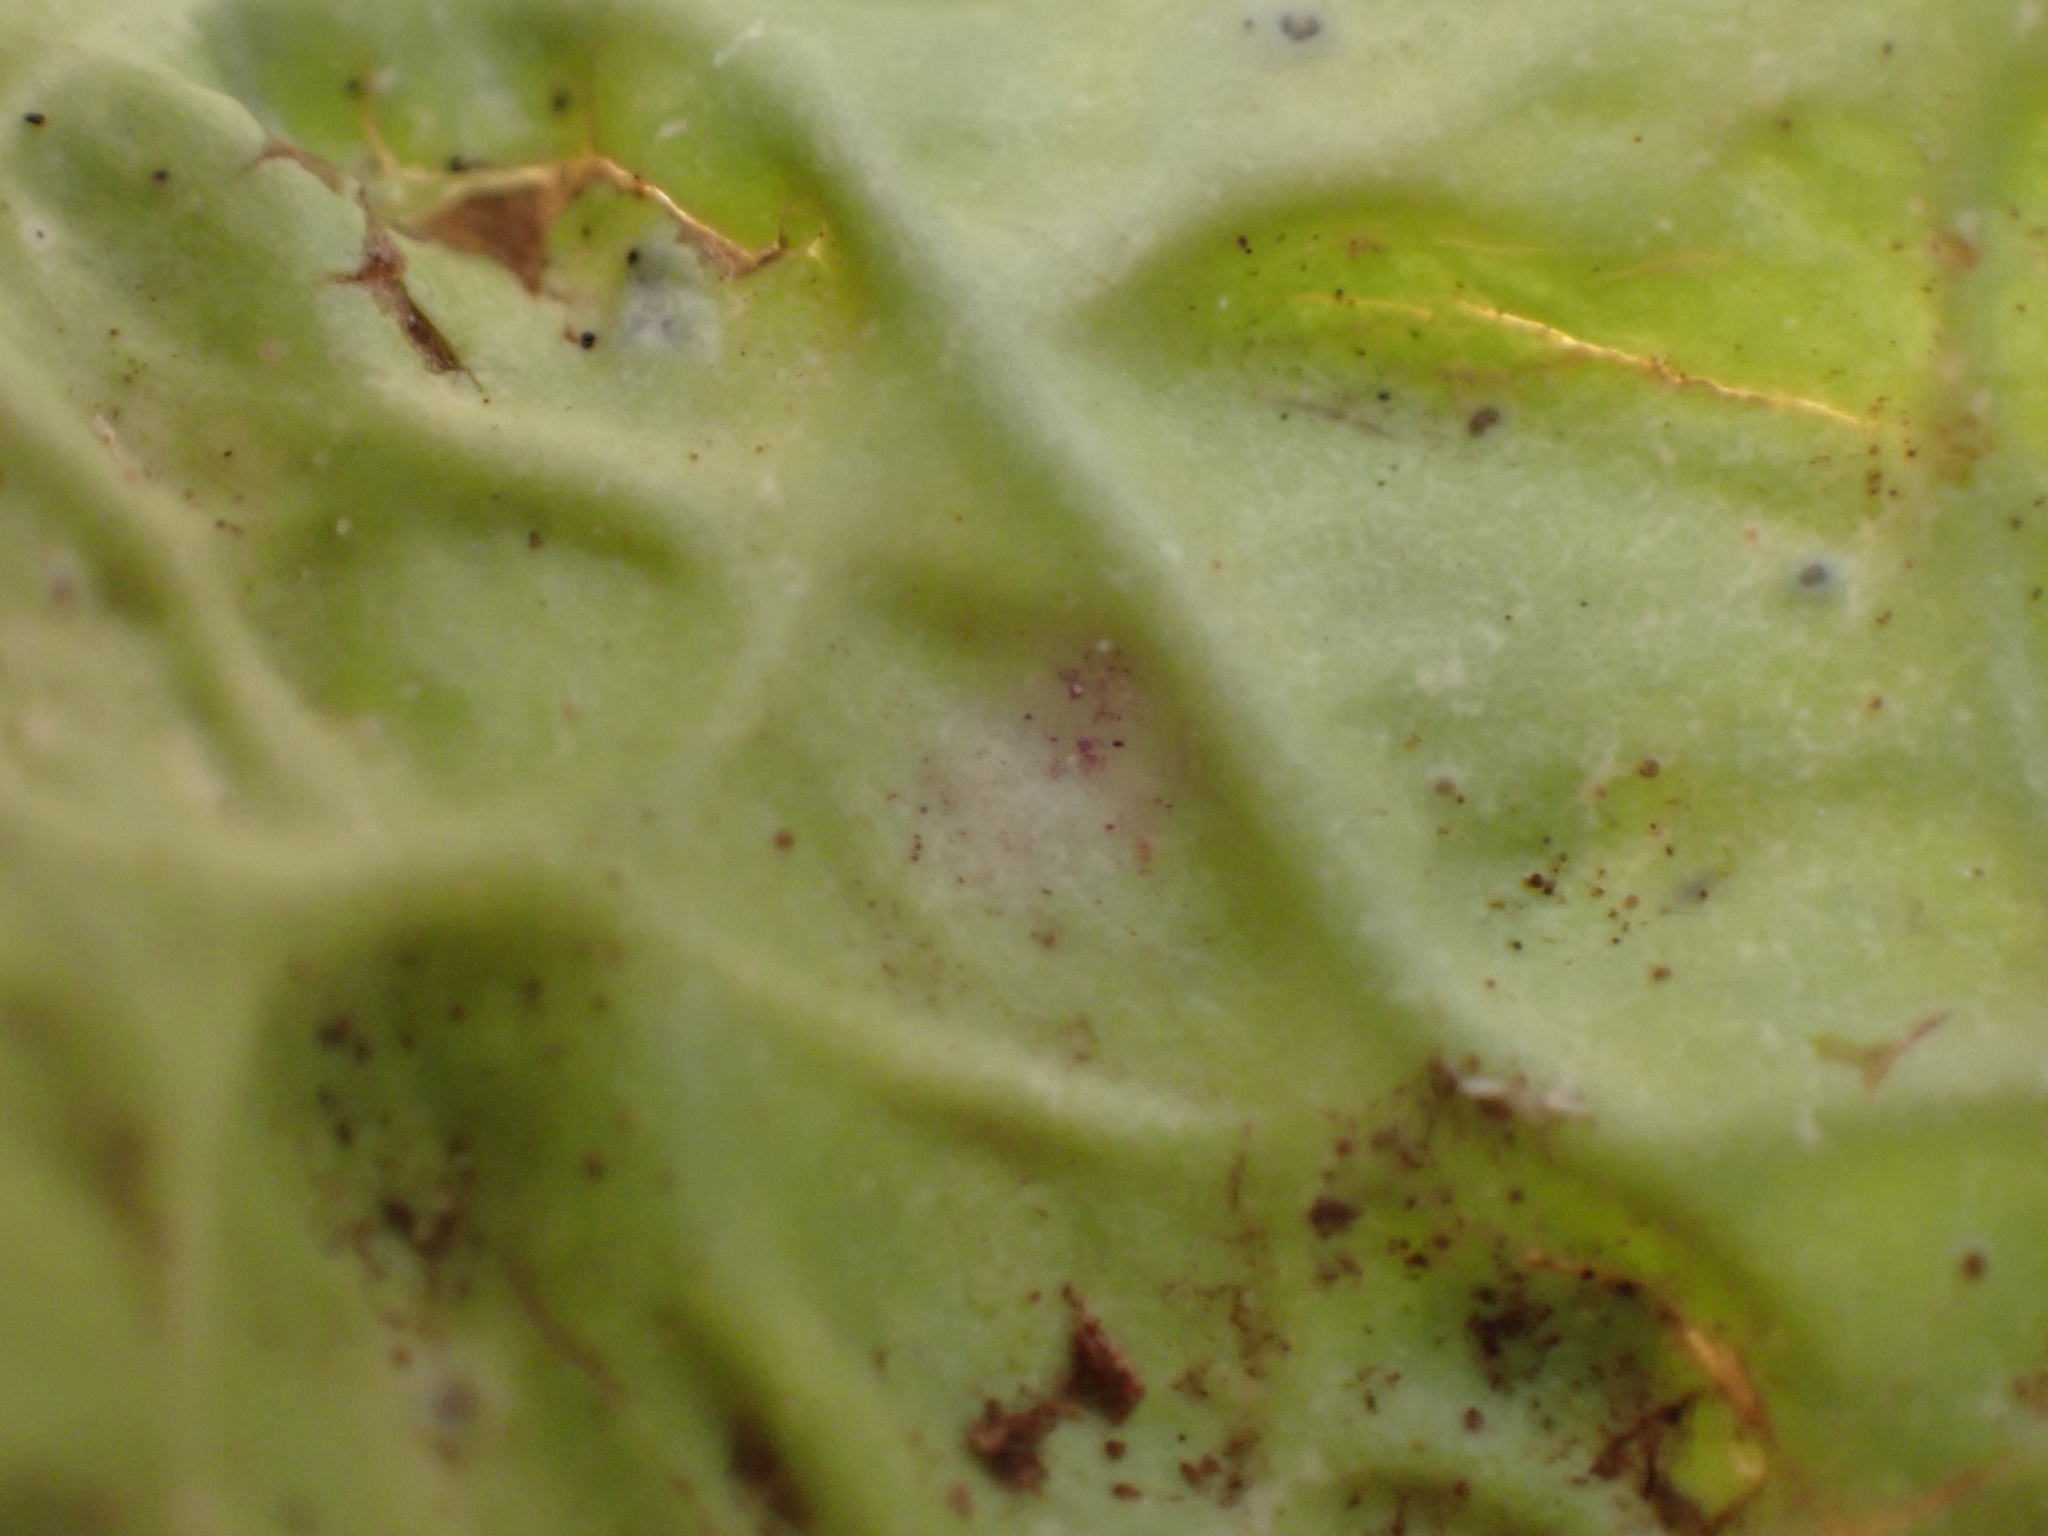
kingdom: Fungi
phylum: Ascomycota
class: Lecanoromycetes
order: Peltigerales
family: Lobariaceae
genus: Lobaria
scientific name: Lobaria oregana
